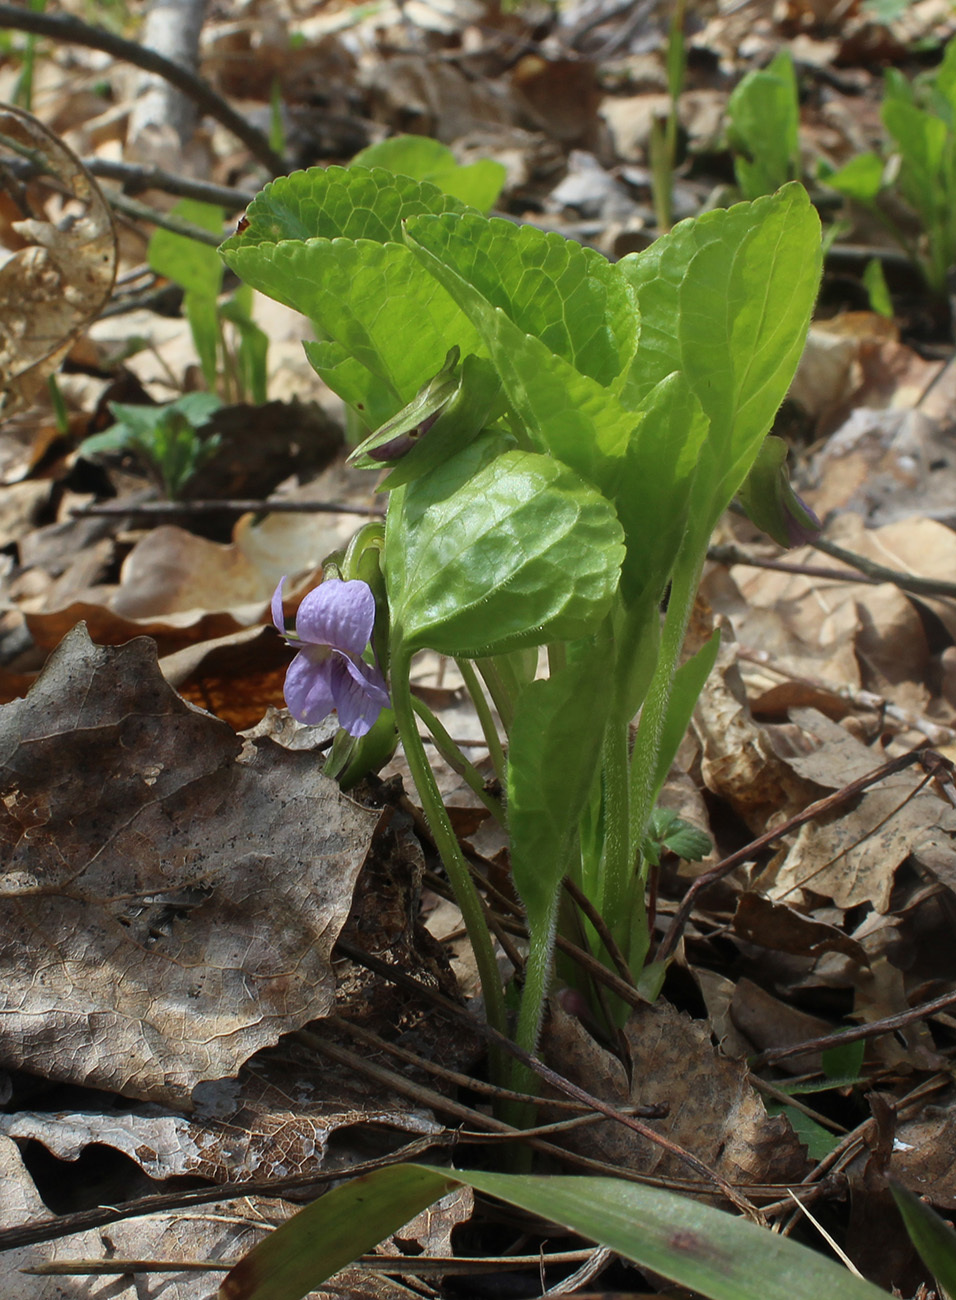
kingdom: Plantae
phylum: Tracheophyta
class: Magnoliopsida
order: Malpighiales
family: Violaceae
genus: Viola
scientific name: Viola mirabilis
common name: Wonder violet
